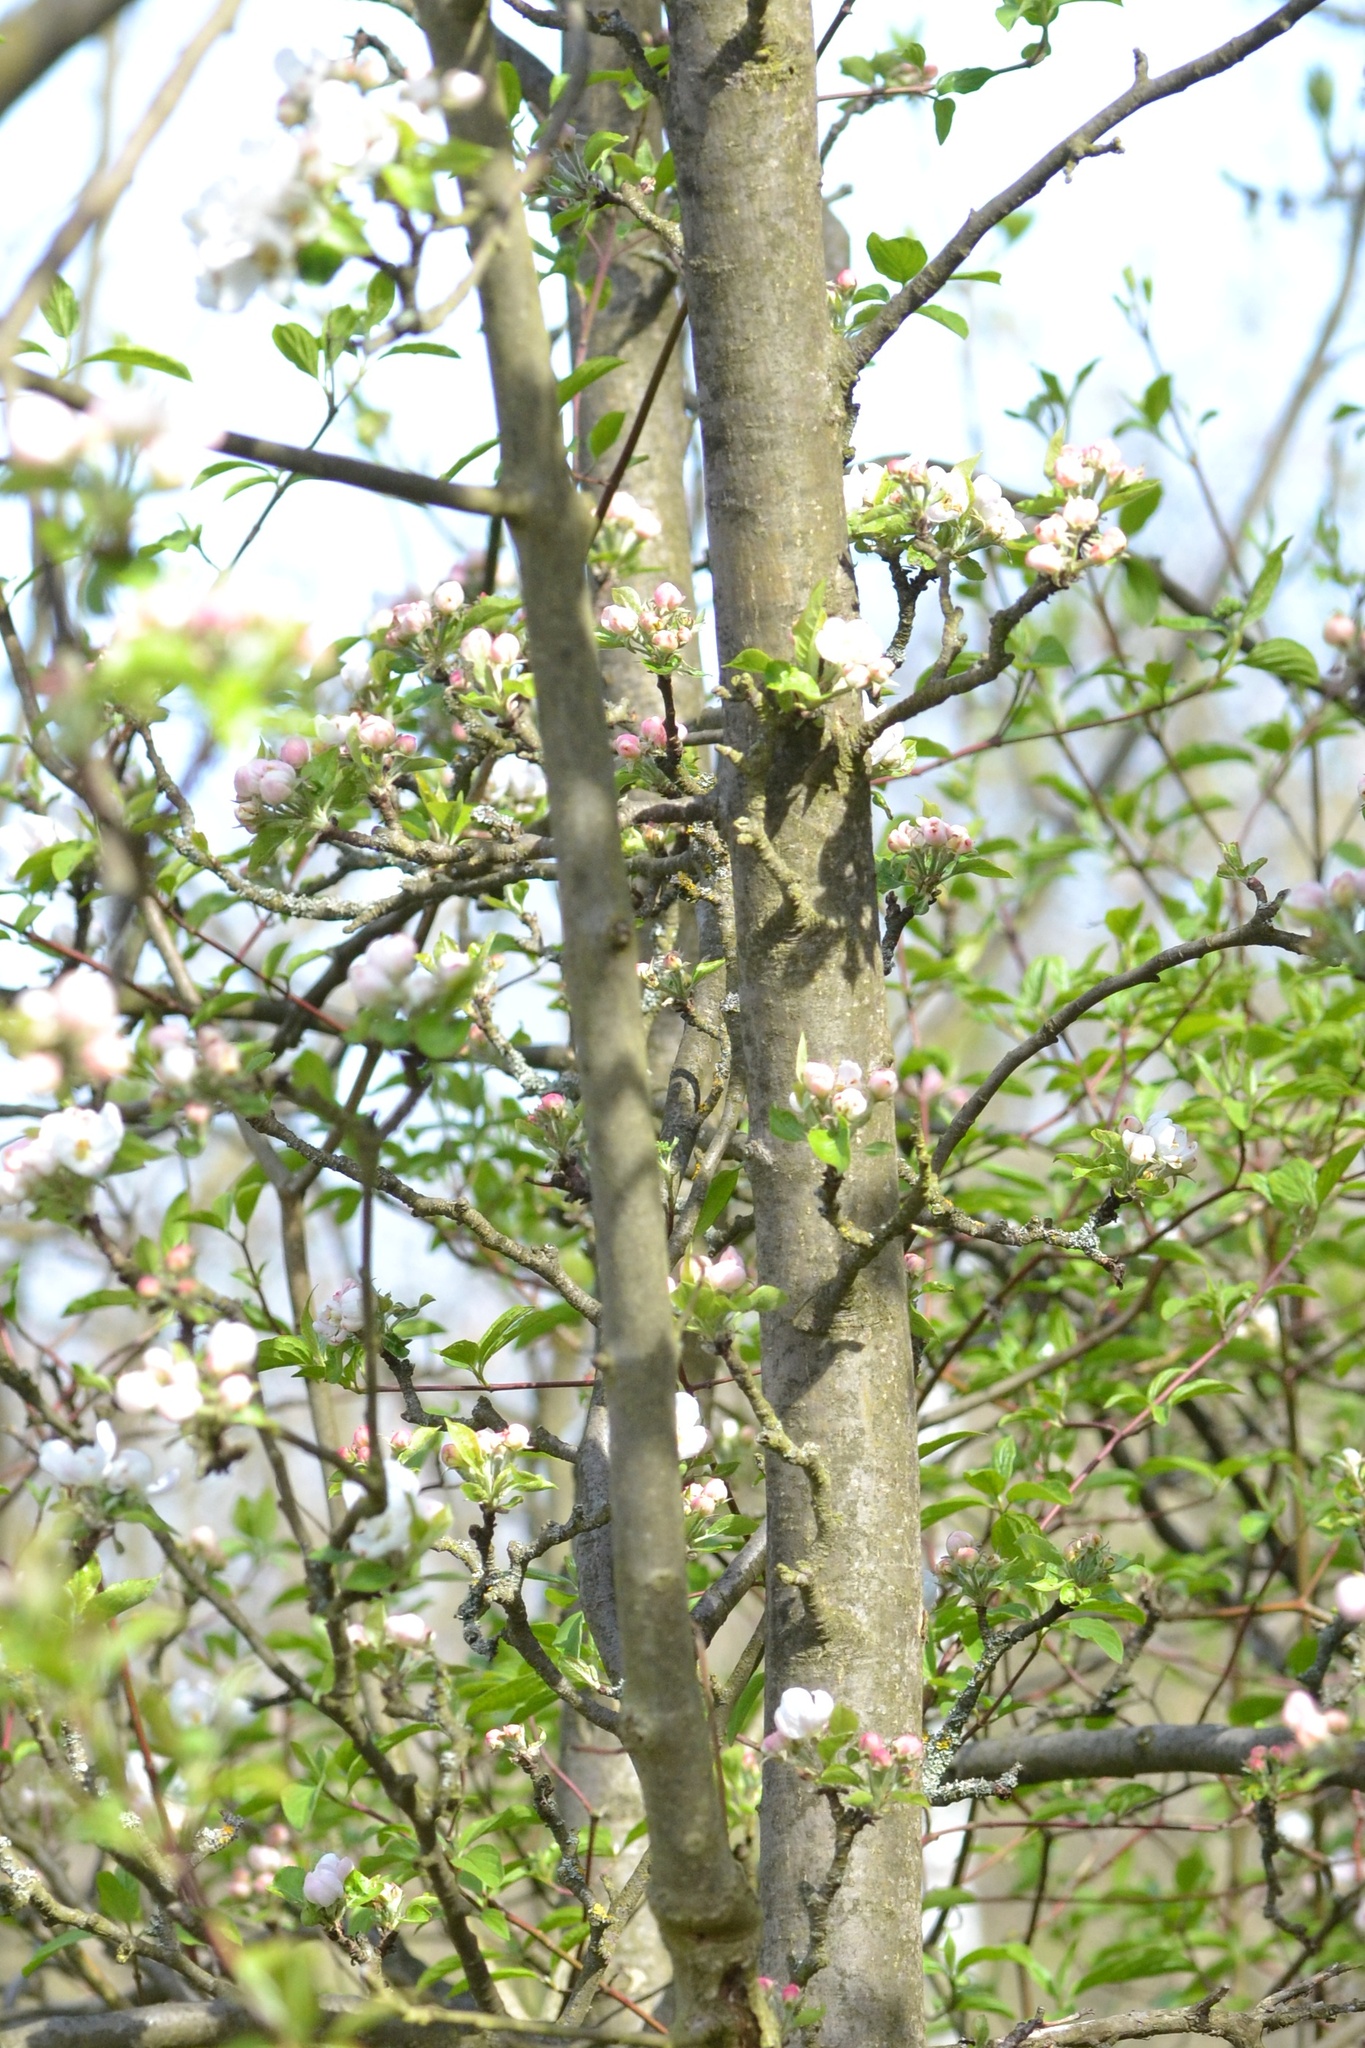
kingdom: Plantae
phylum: Tracheophyta
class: Magnoliopsida
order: Rosales
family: Rosaceae
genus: Malus
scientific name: Malus domestica
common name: Apple
